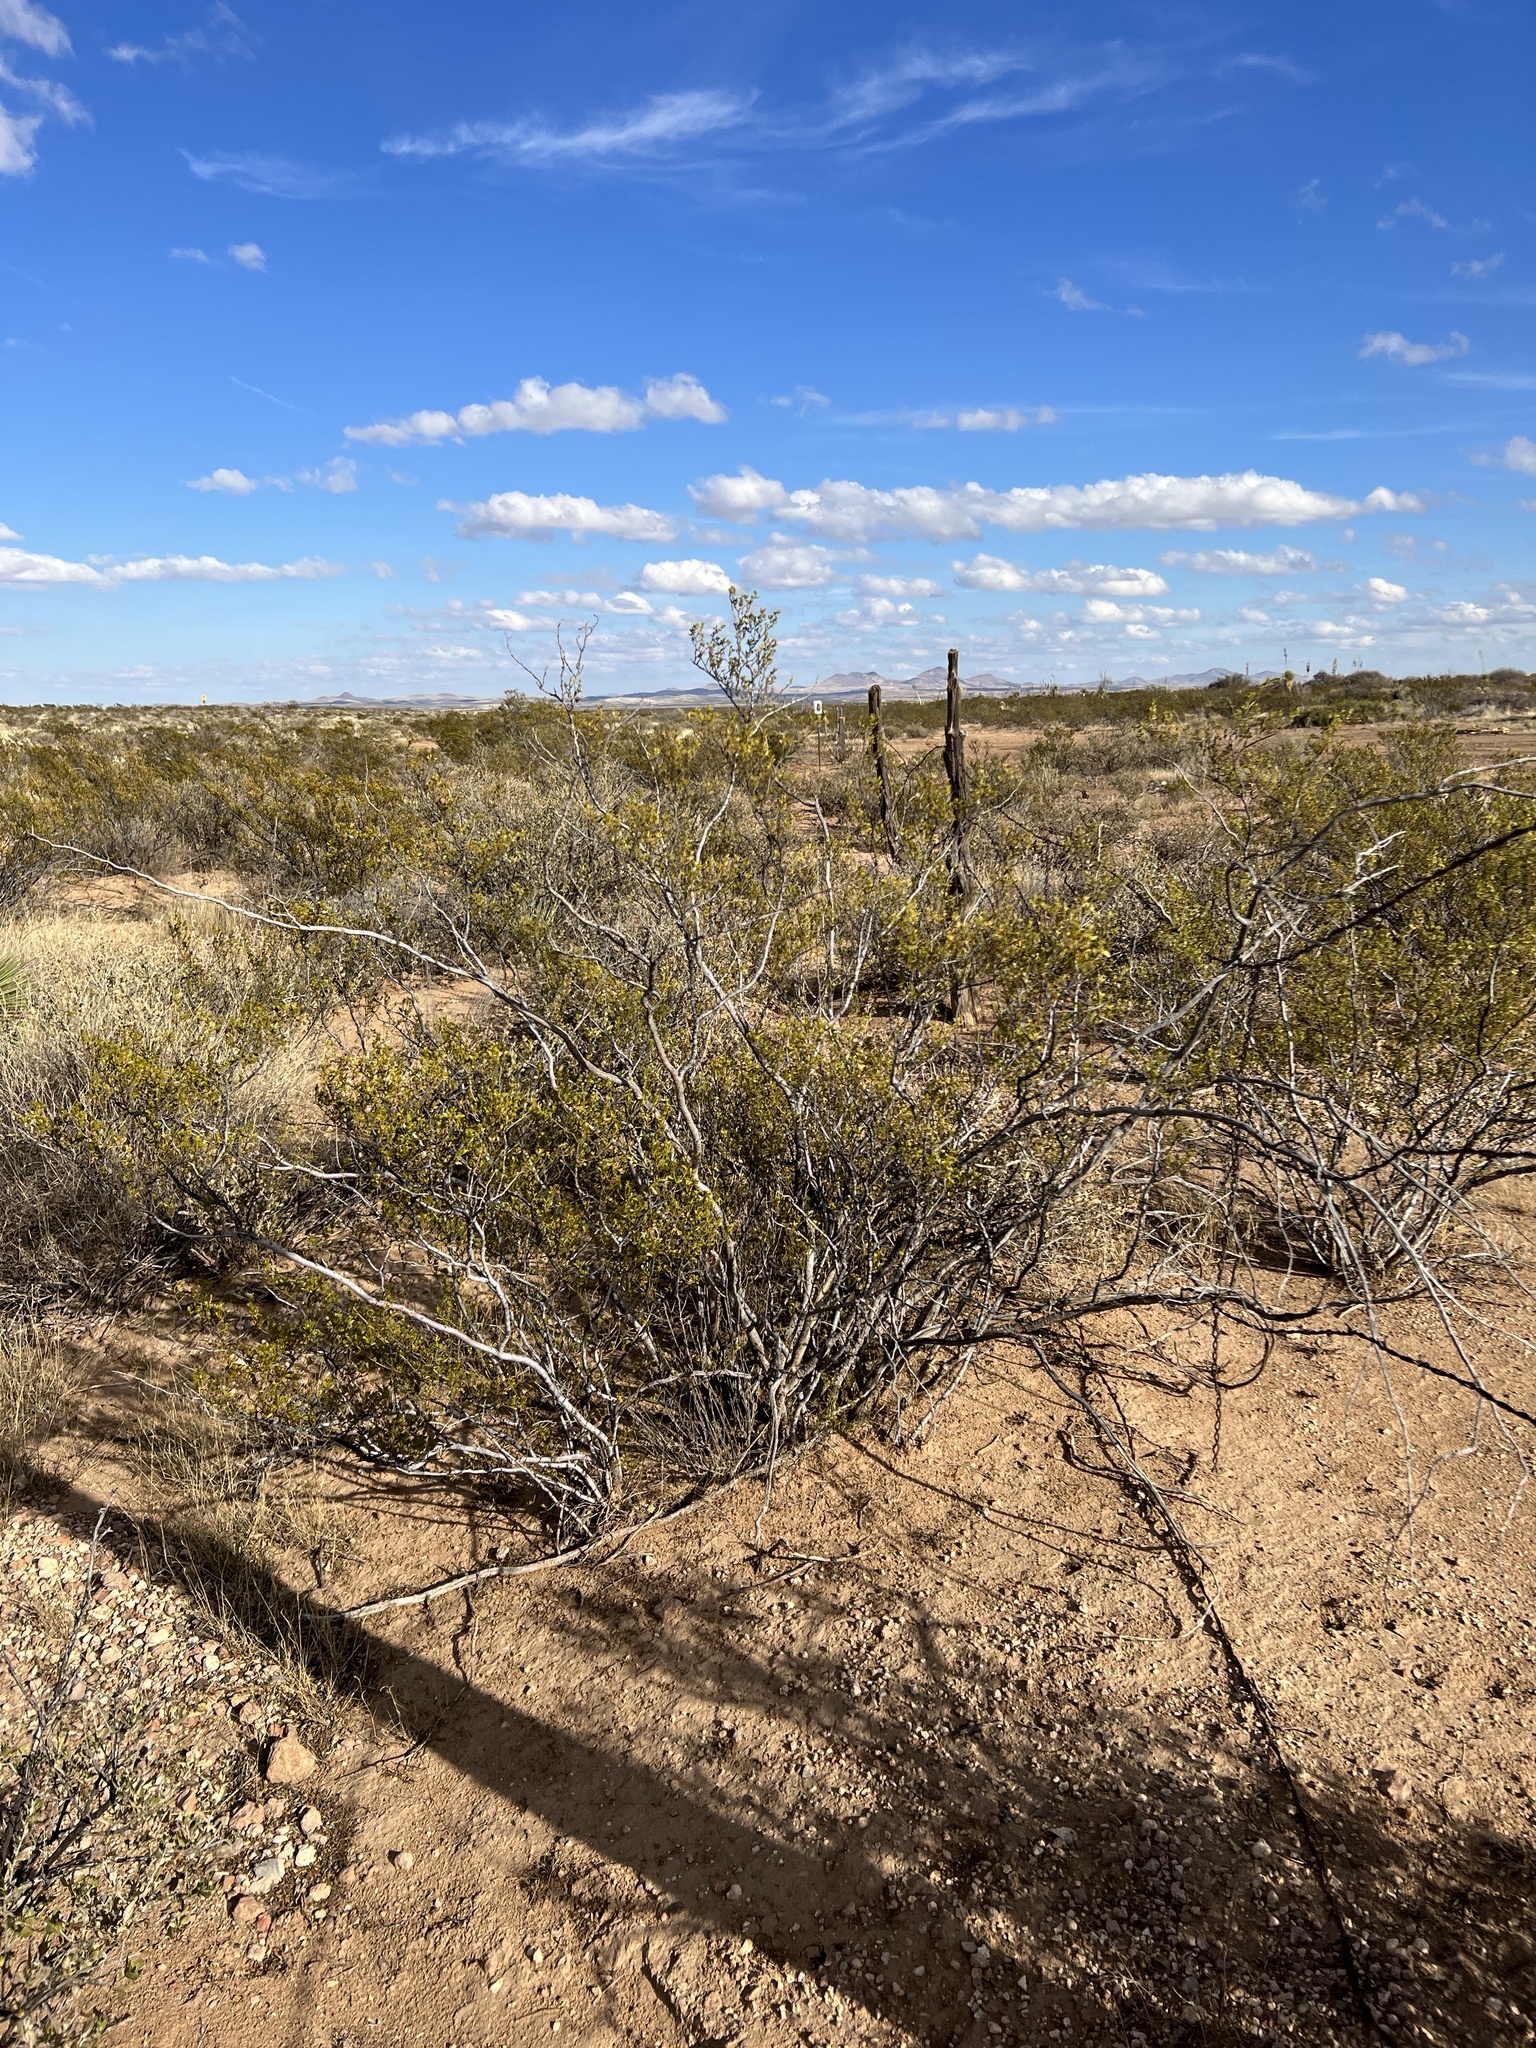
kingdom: Plantae
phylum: Tracheophyta
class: Magnoliopsida
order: Zygophyllales
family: Zygophyllaceae
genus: Larrea
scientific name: Larrea tridentata
